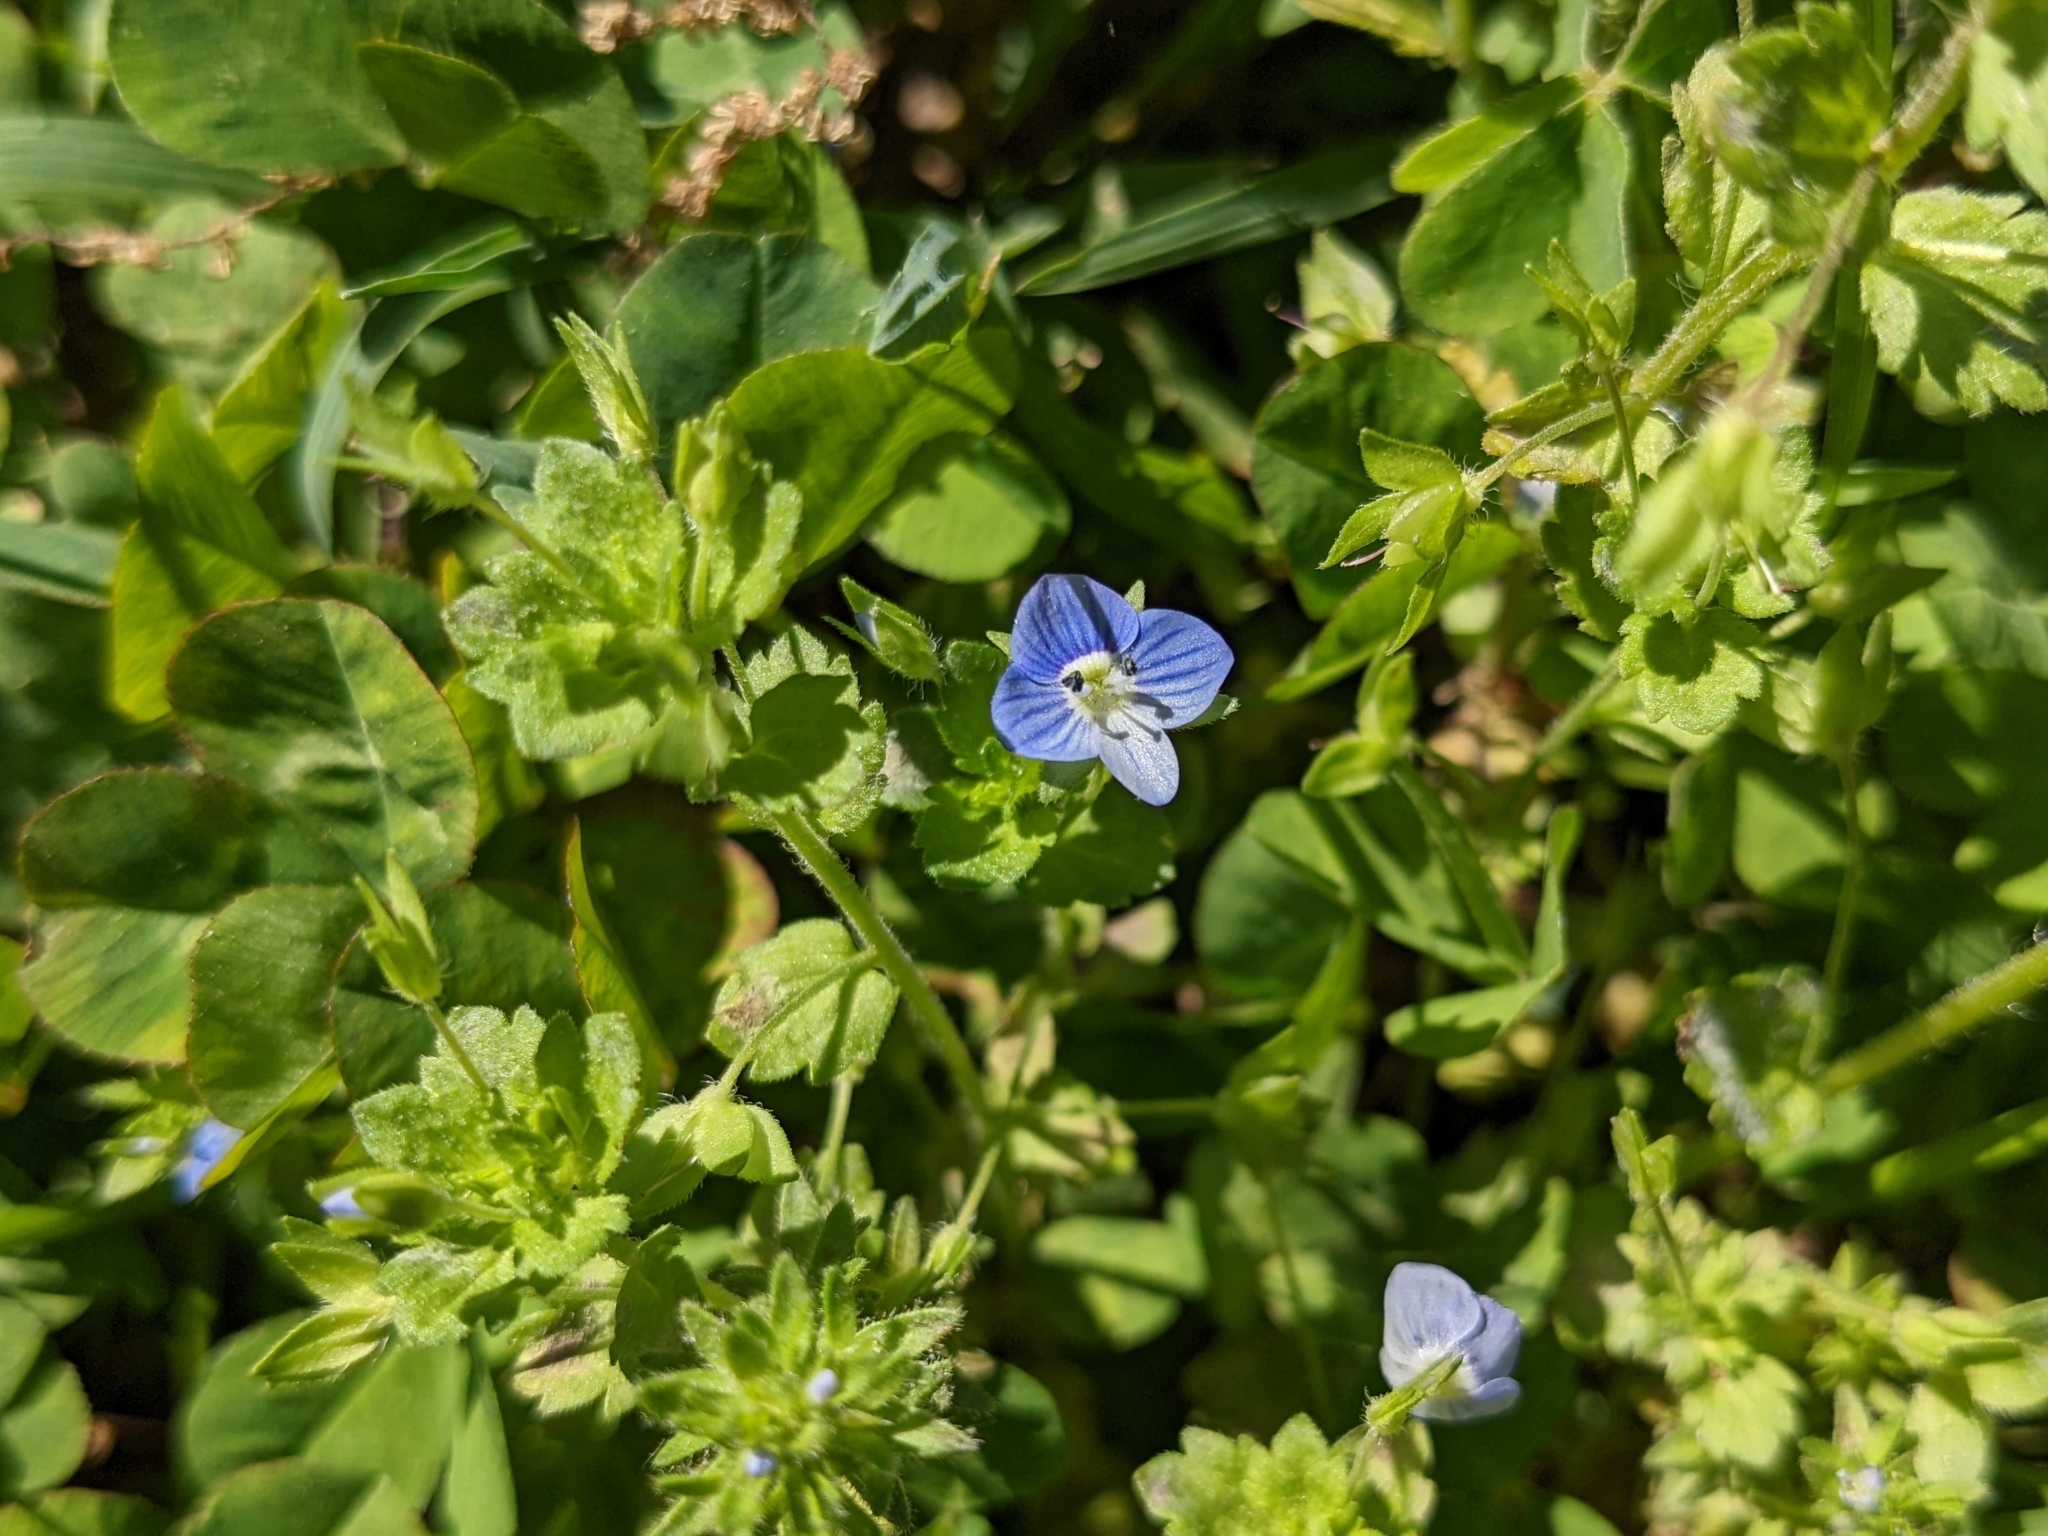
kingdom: Plantae
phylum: Tracheophyta
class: Magnoliopsida
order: Lamiales
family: Plantaginaceae
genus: Veronica
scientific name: Veronica persica
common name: Common field-speedwell
